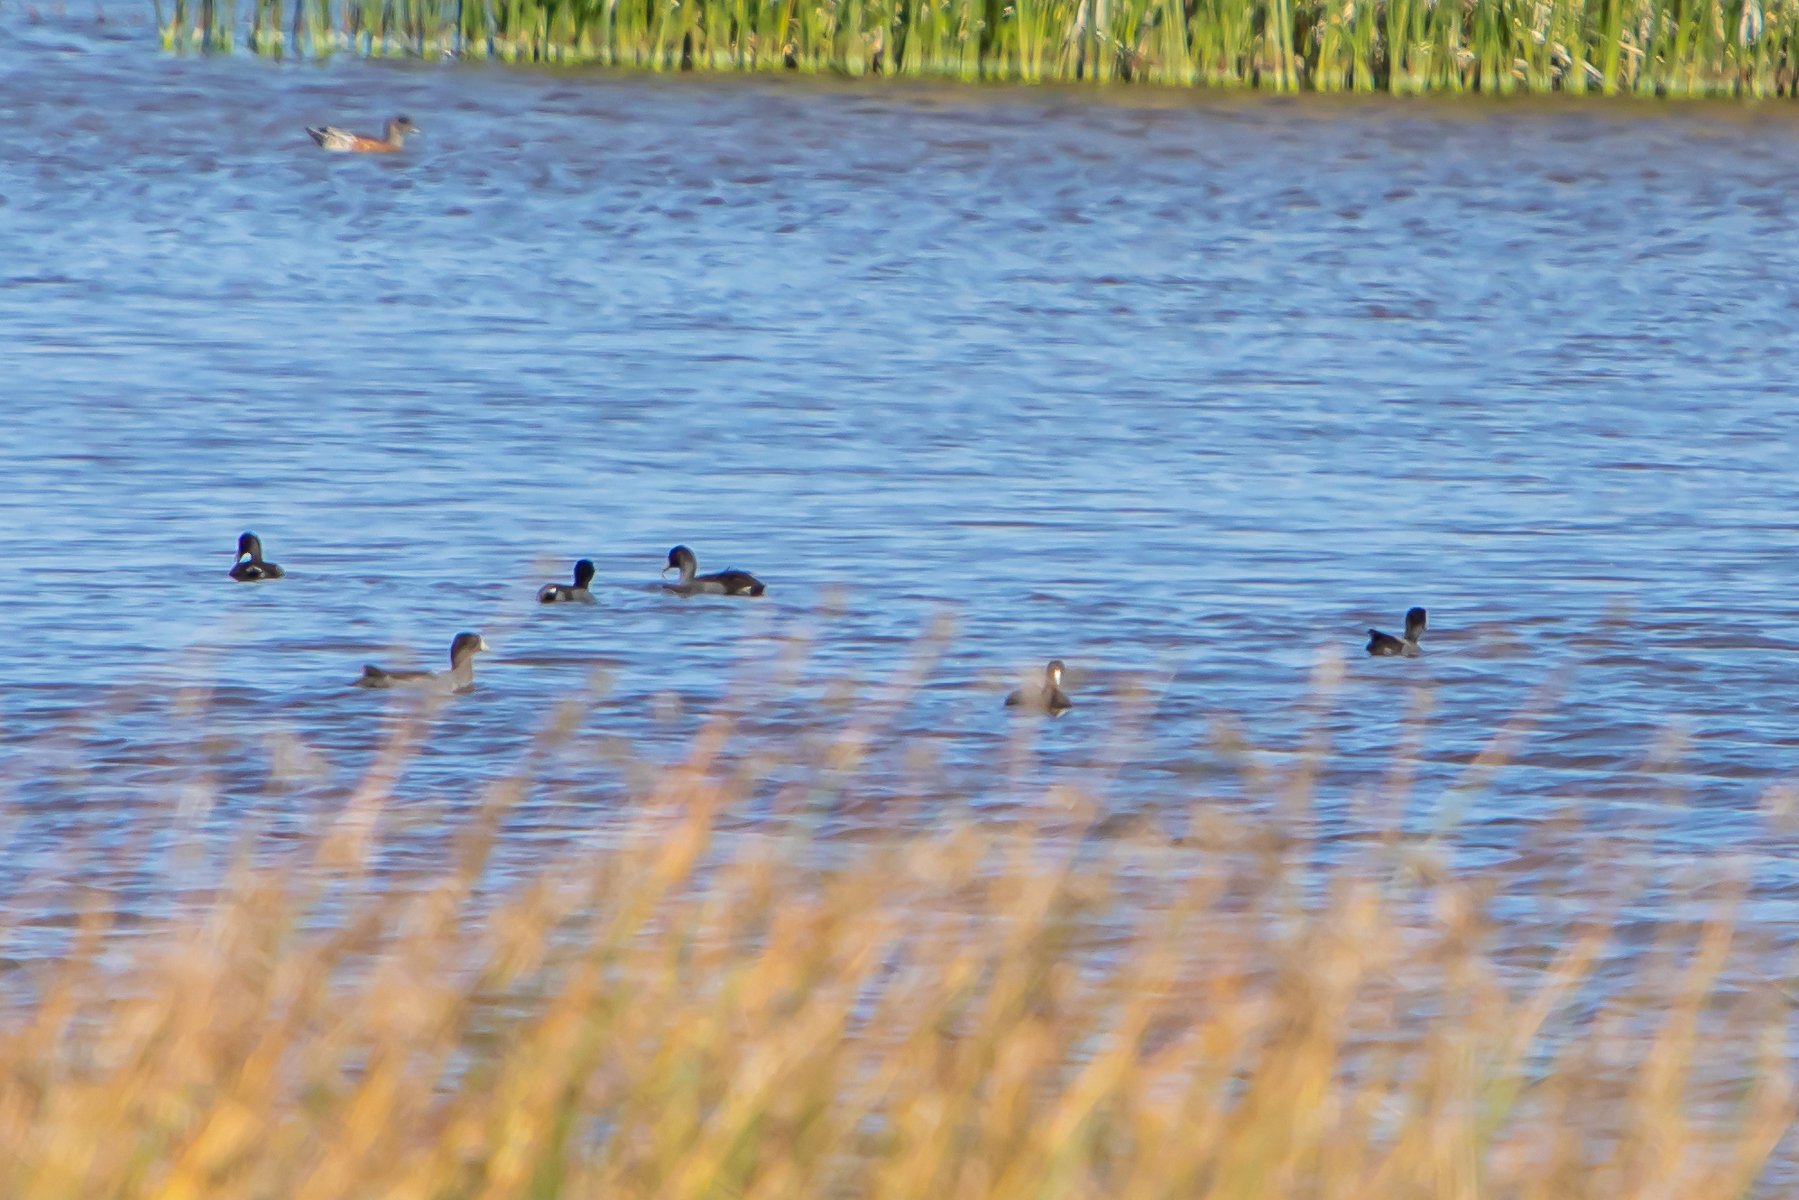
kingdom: Animalia
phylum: Chordata
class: Aves
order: Gruiformes
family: Rallidae
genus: Fulica
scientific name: Fulica americana
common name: American coot
